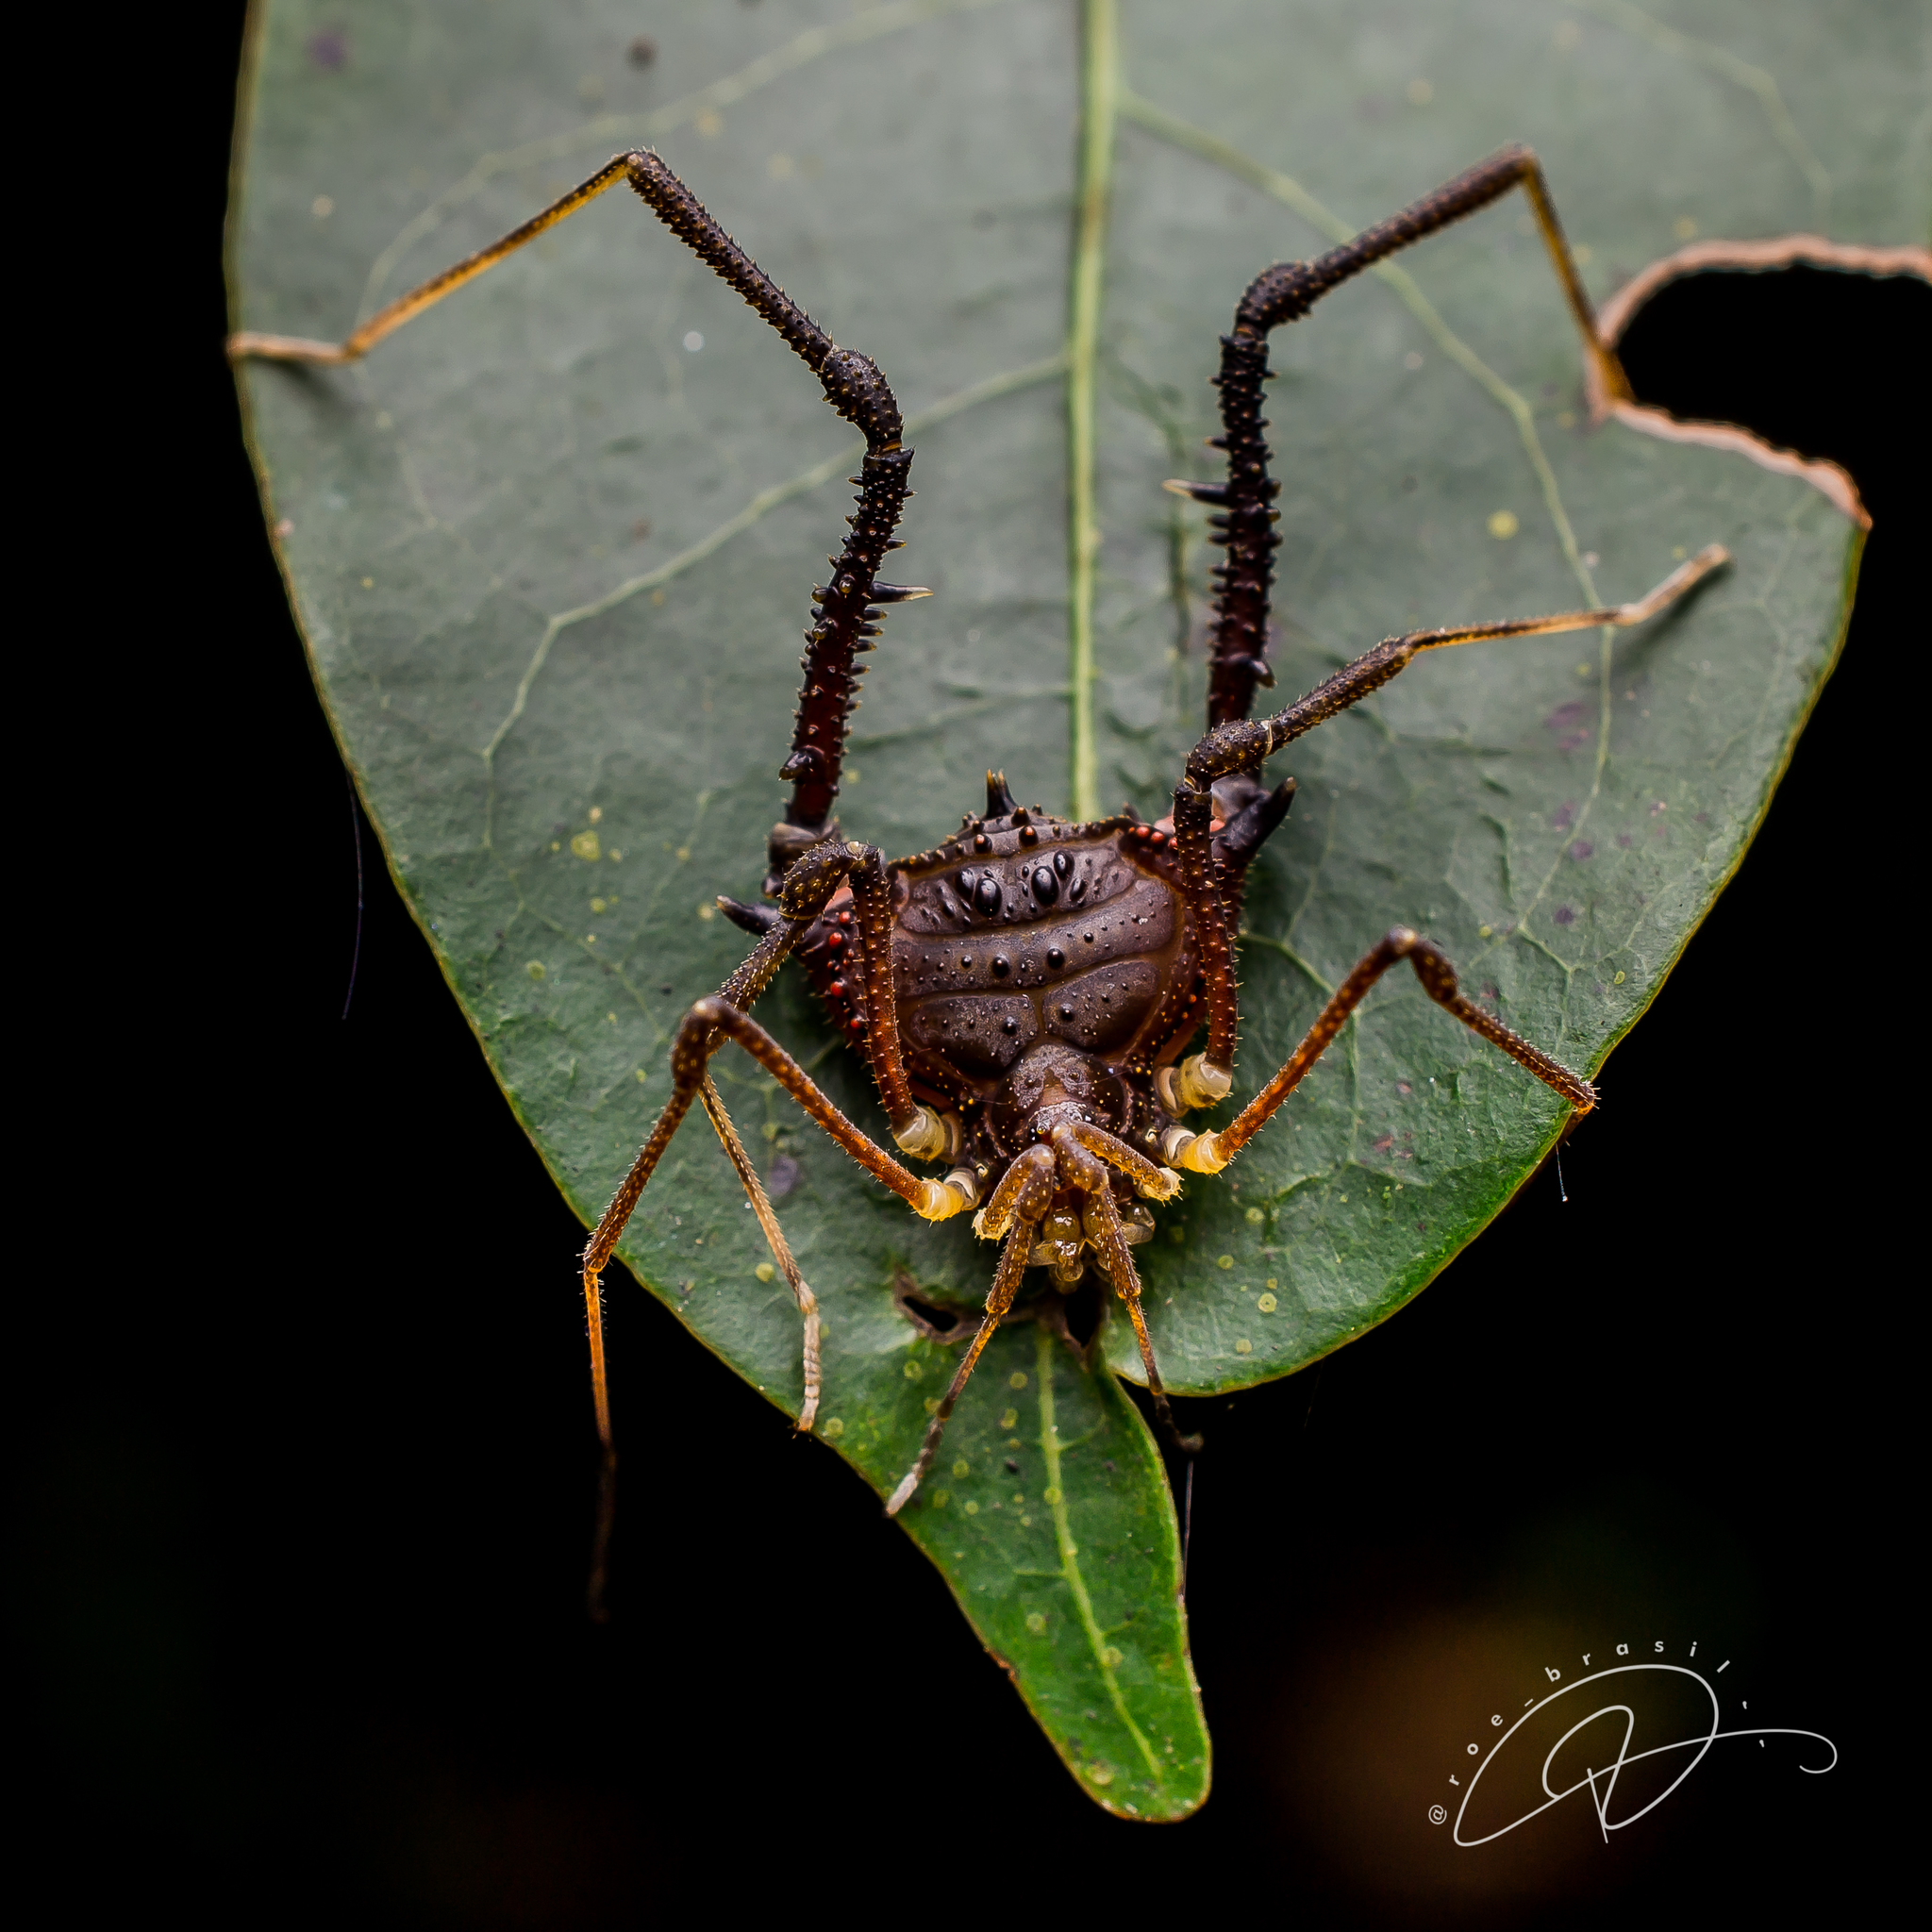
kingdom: Animalia
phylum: Arthropoda
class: Arachnida
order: Opiliones
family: Gonyleptidae
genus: Mischonyx
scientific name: Mischonyx squalidus
